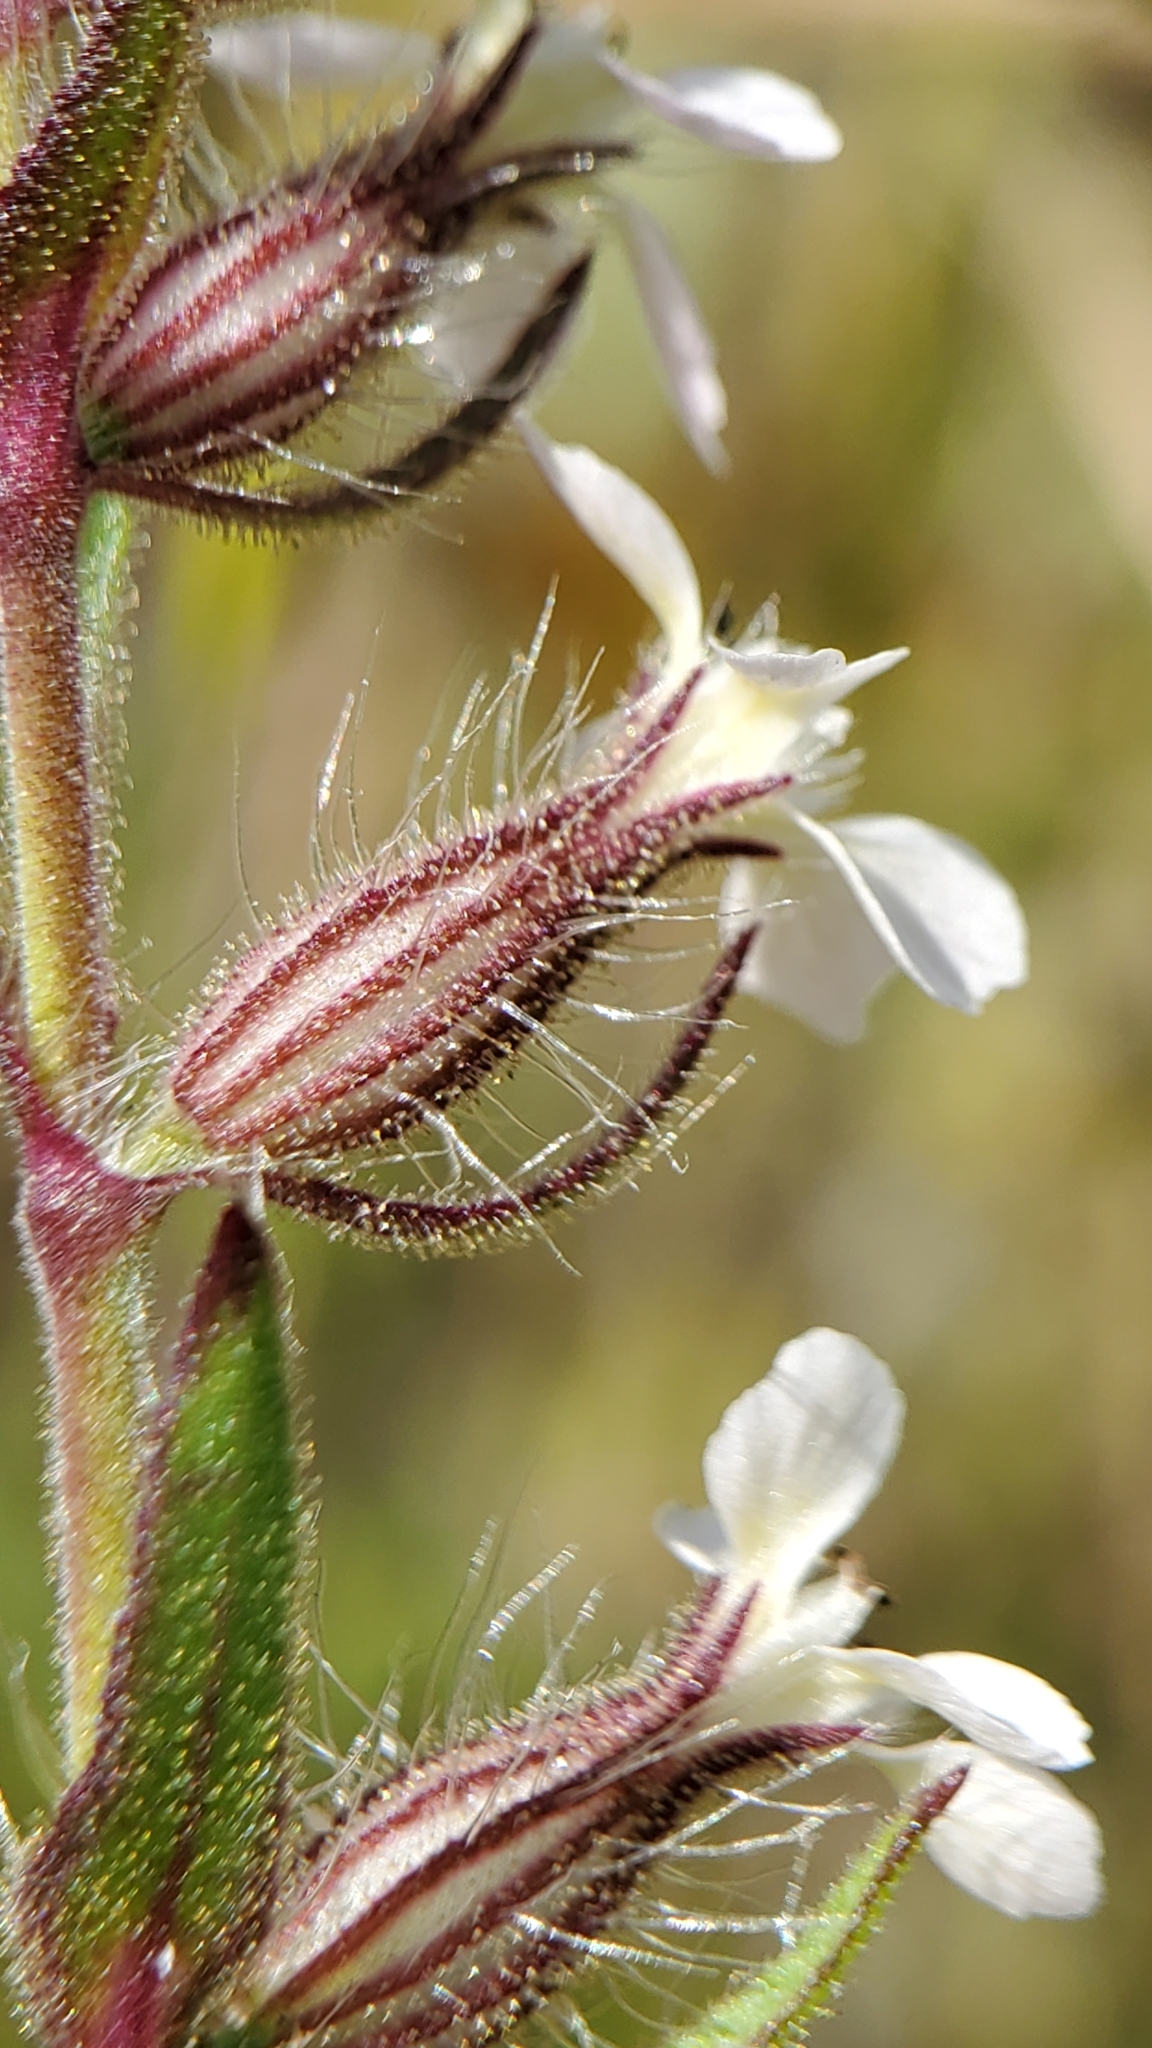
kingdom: Plantae
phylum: Tracheophyta
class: Magnoliopsida
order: Caryophyllales
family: Caryophyllaceae
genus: Silene
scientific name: Silene gallica
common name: Small-flowered catchfly
